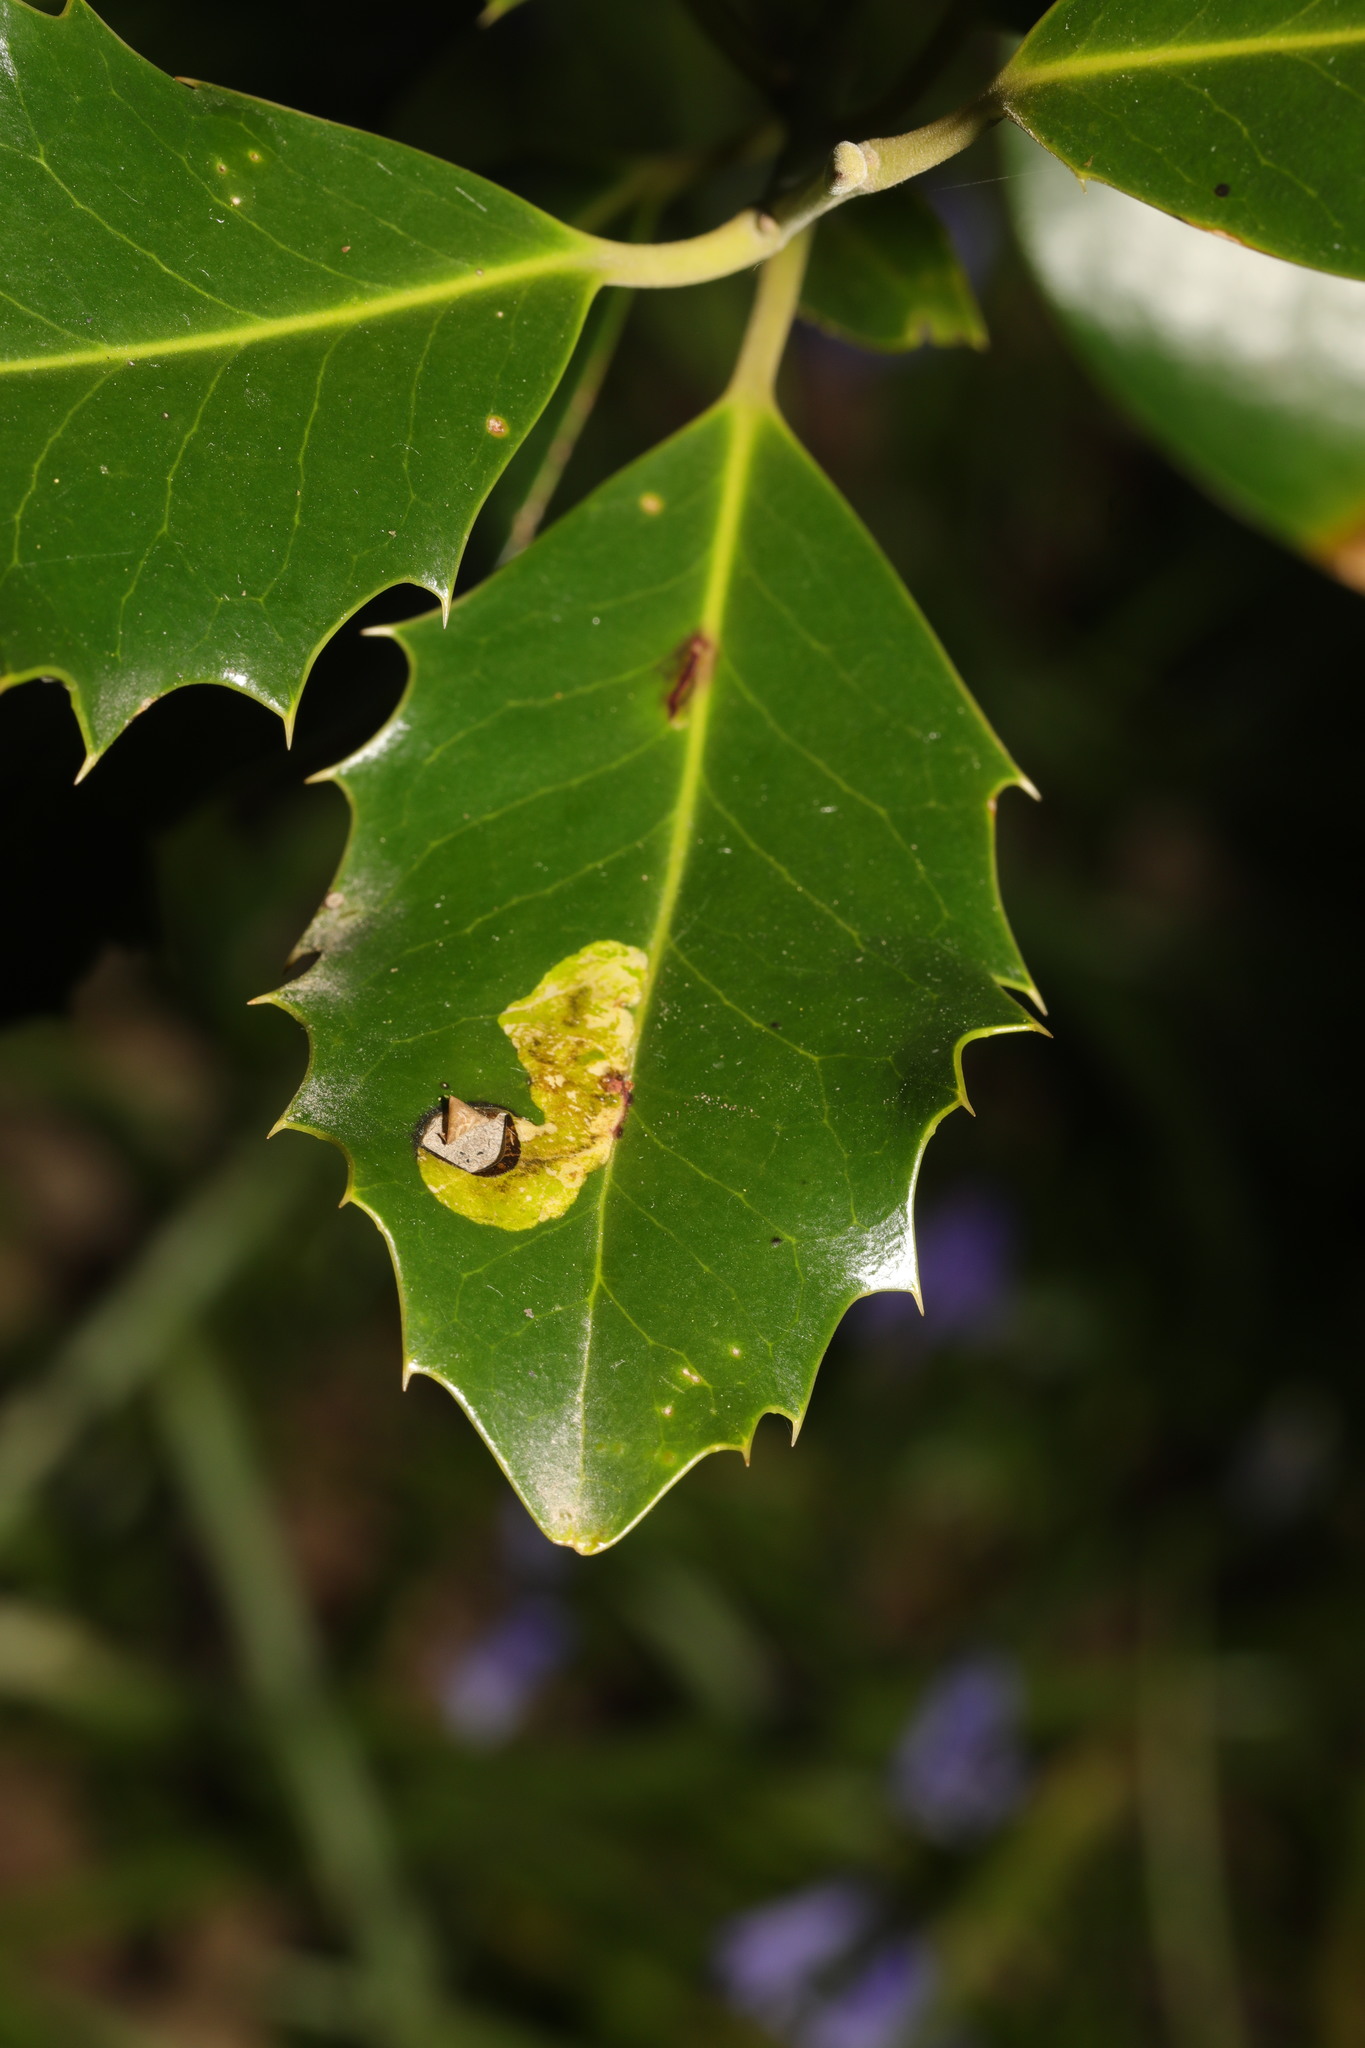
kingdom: Animalia
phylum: Arthropoda
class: Insecta
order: Diptera
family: Agromyzidae
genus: Phytomyza
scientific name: Phytomyza ilicis
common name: Holly leafminer
